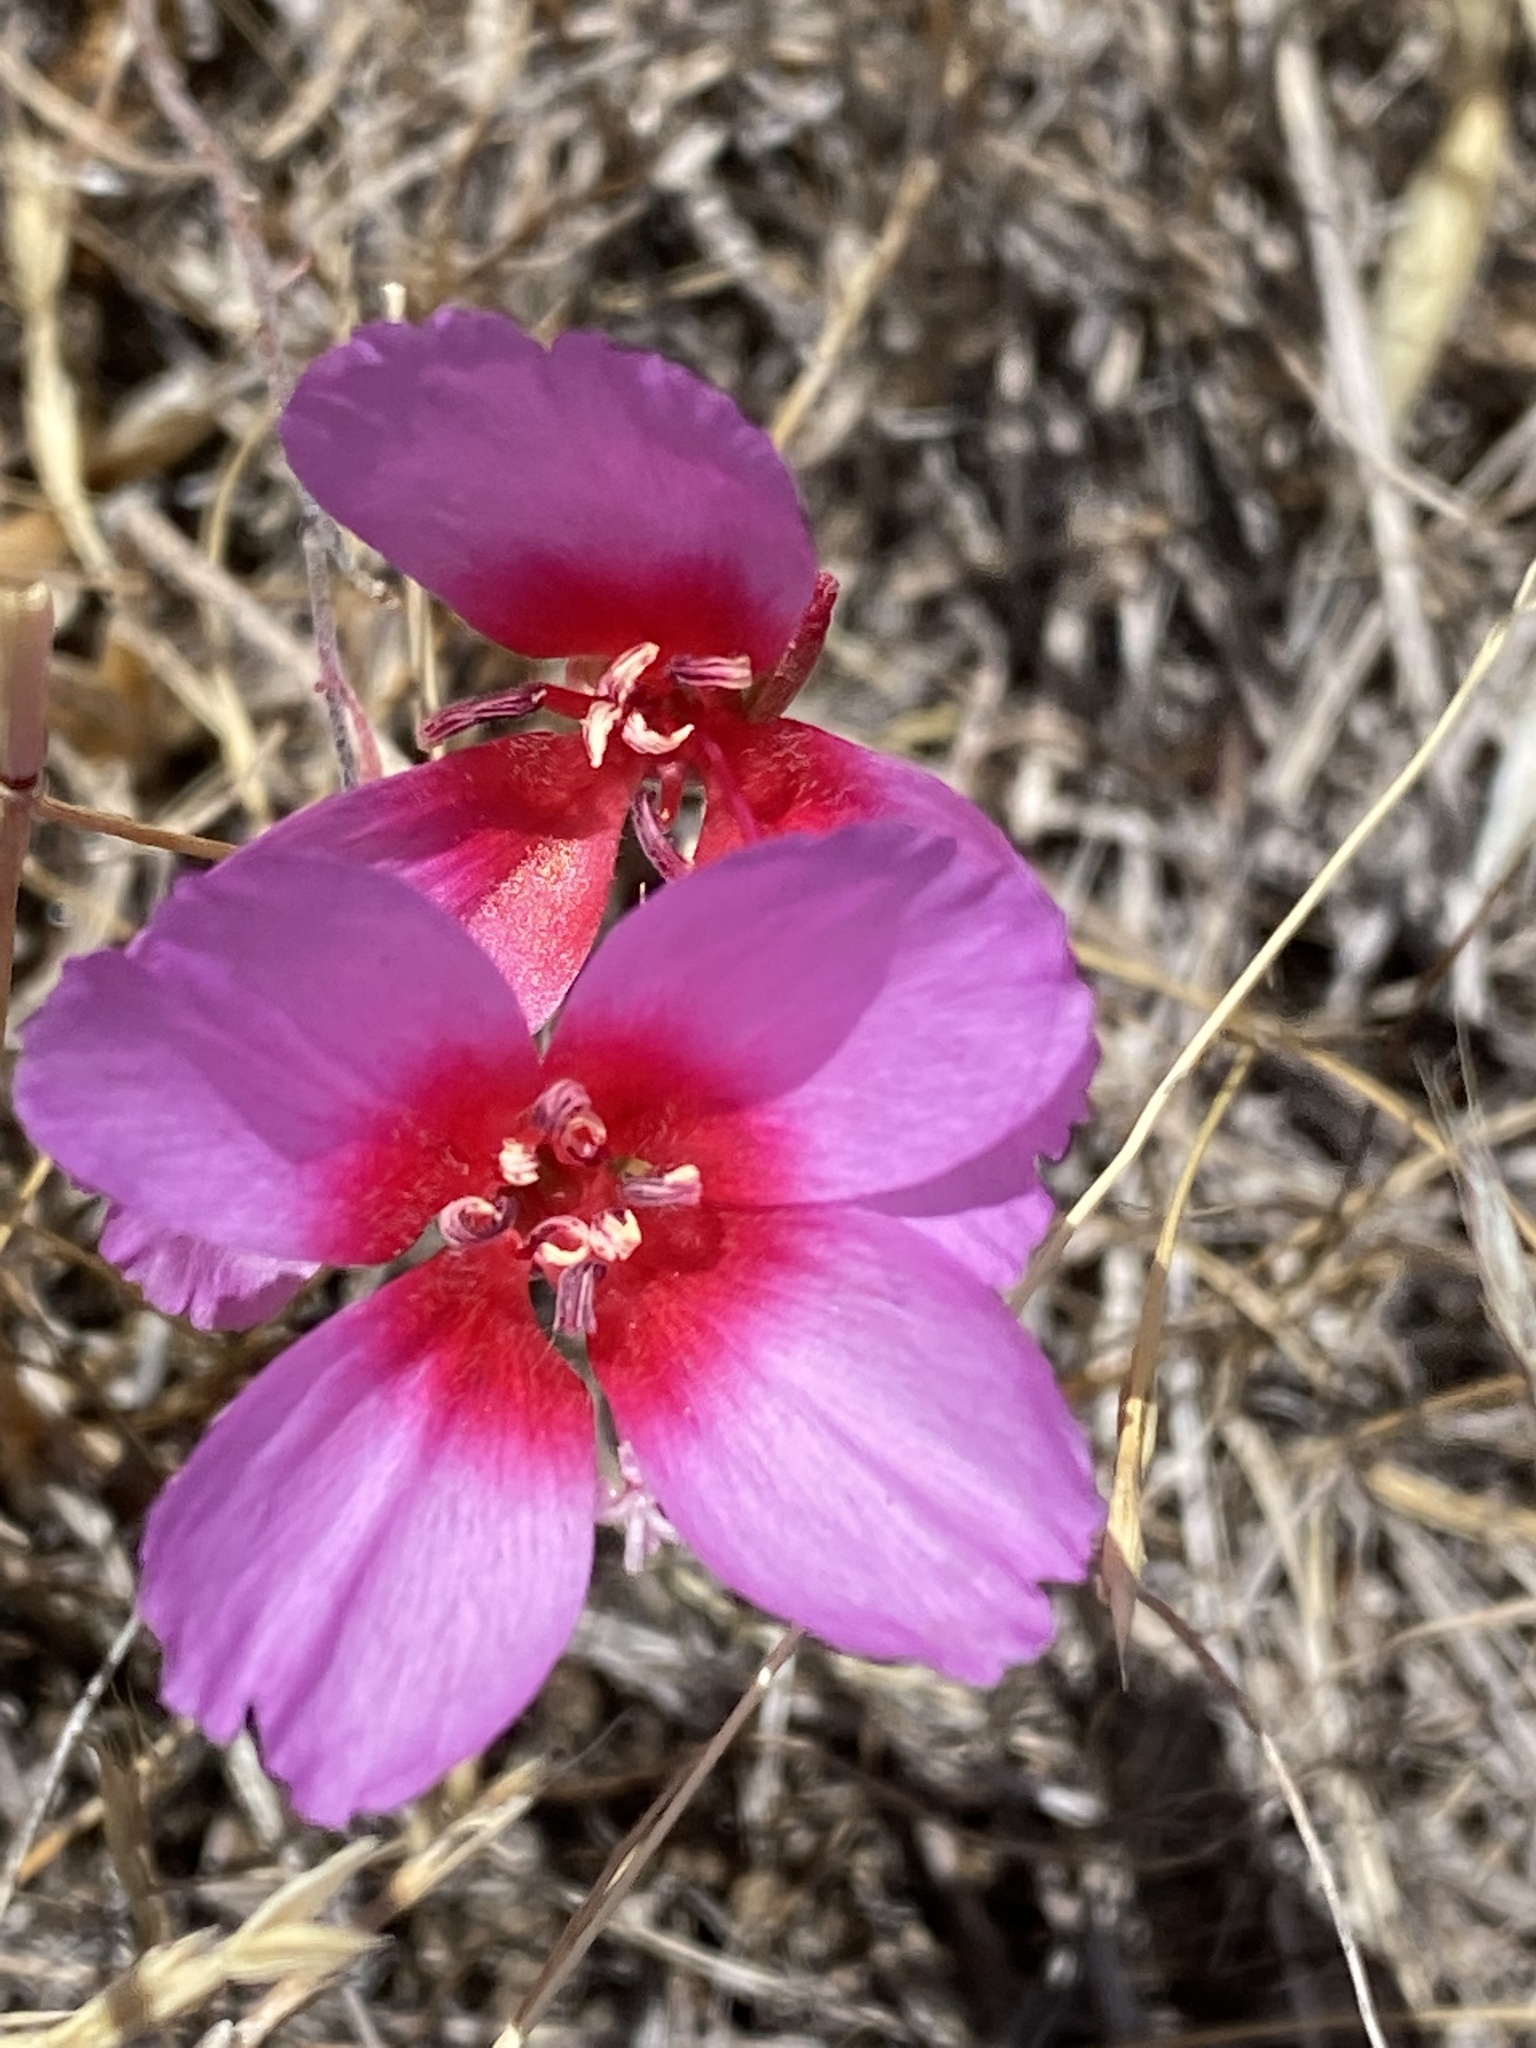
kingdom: Plantae
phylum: Tracheophyta
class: Magnoliopsida
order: Myrtales
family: Onagraceae
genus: Clarkia
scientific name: Clarkia rubicunda
